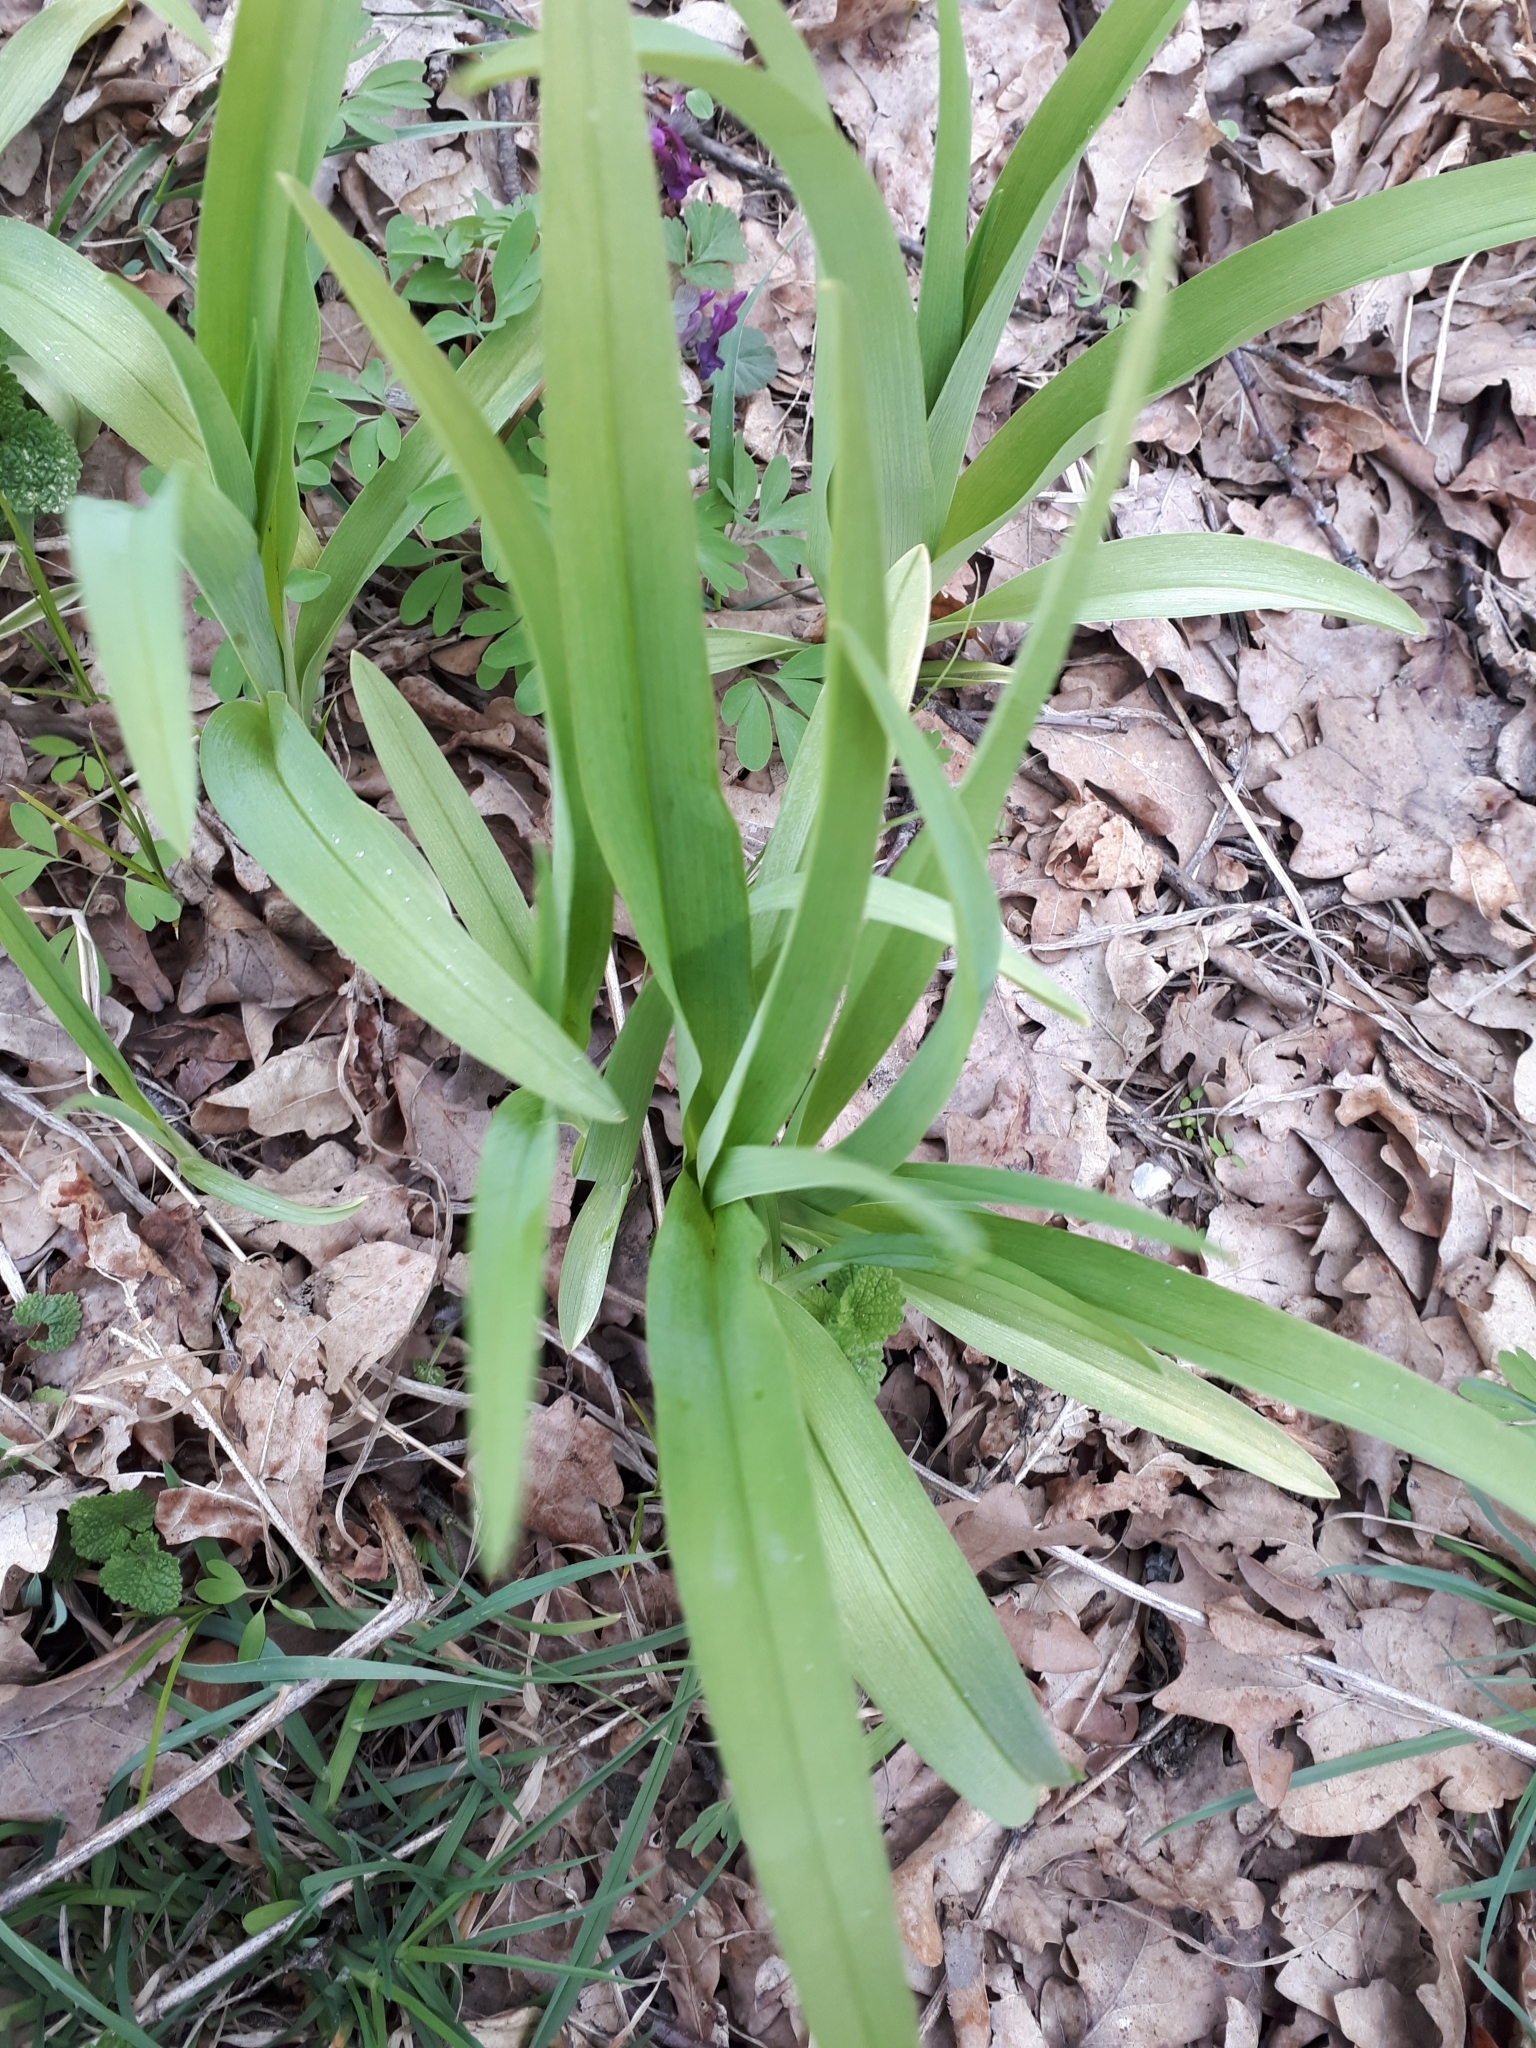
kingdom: Plantae
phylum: Tracheophyta
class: Liliopsida
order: Asparagales
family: Iridaceae
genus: Iris
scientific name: Iris aphylla
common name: Stool iris
